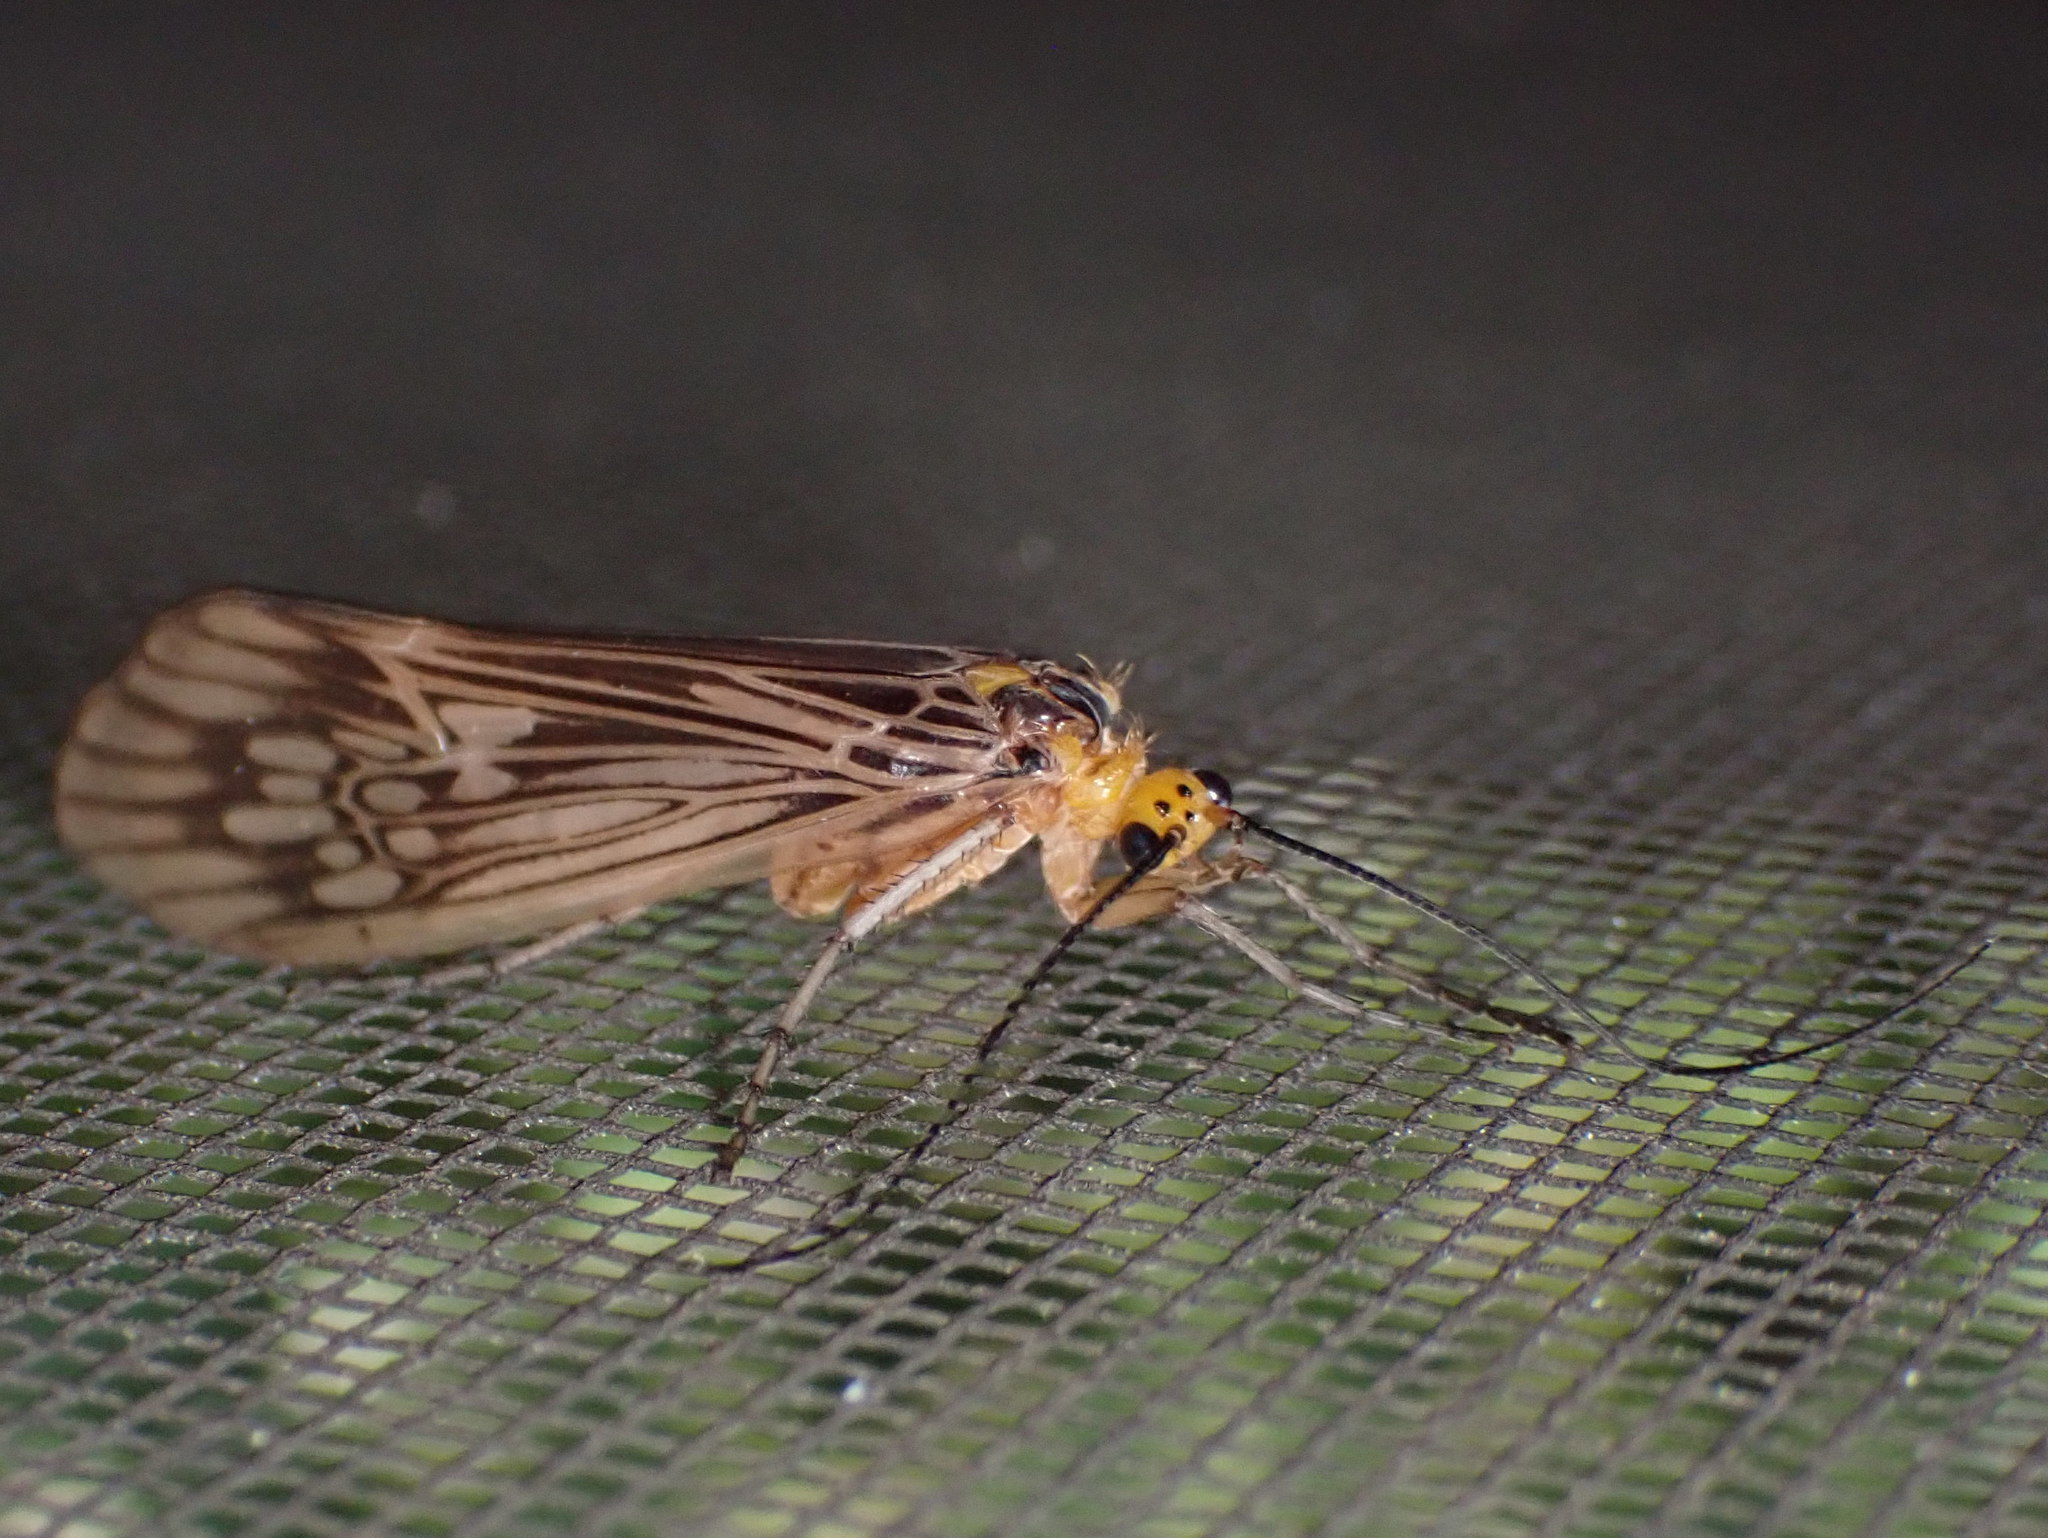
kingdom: Animalia
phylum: Arthropoda
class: Insecta
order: Trichoptera
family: Limnephilidae
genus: Hydatophylax
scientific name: Hydatophylax argus
